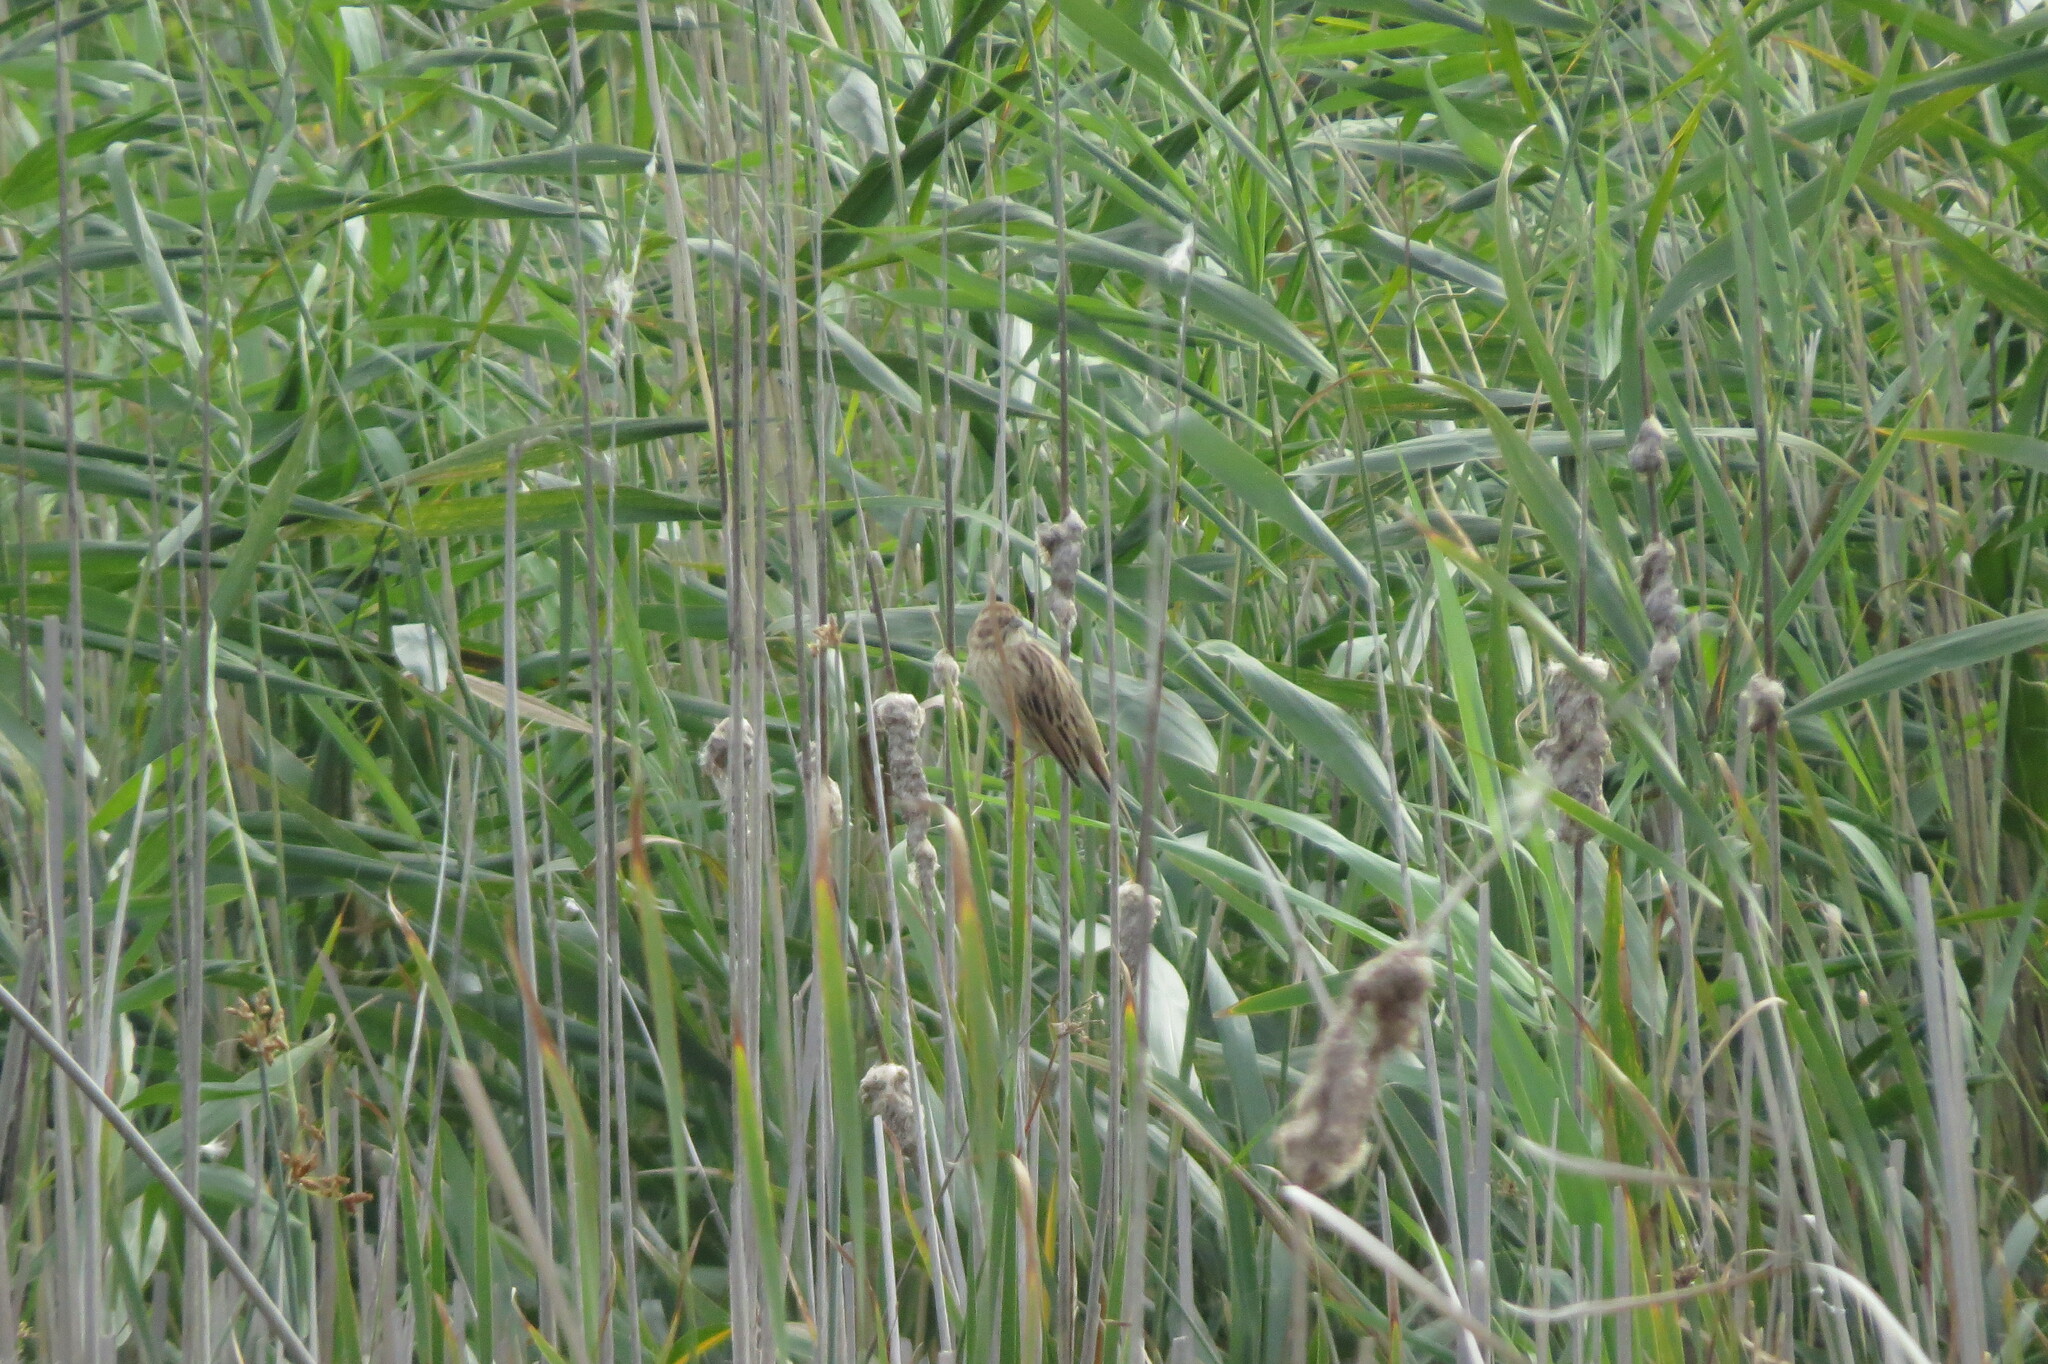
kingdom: Animalia
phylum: Chordata
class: Aves
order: Passeriformes
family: Emberizidae
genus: Emberiza
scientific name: Emberiza schoeniclus
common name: Reed bunting
